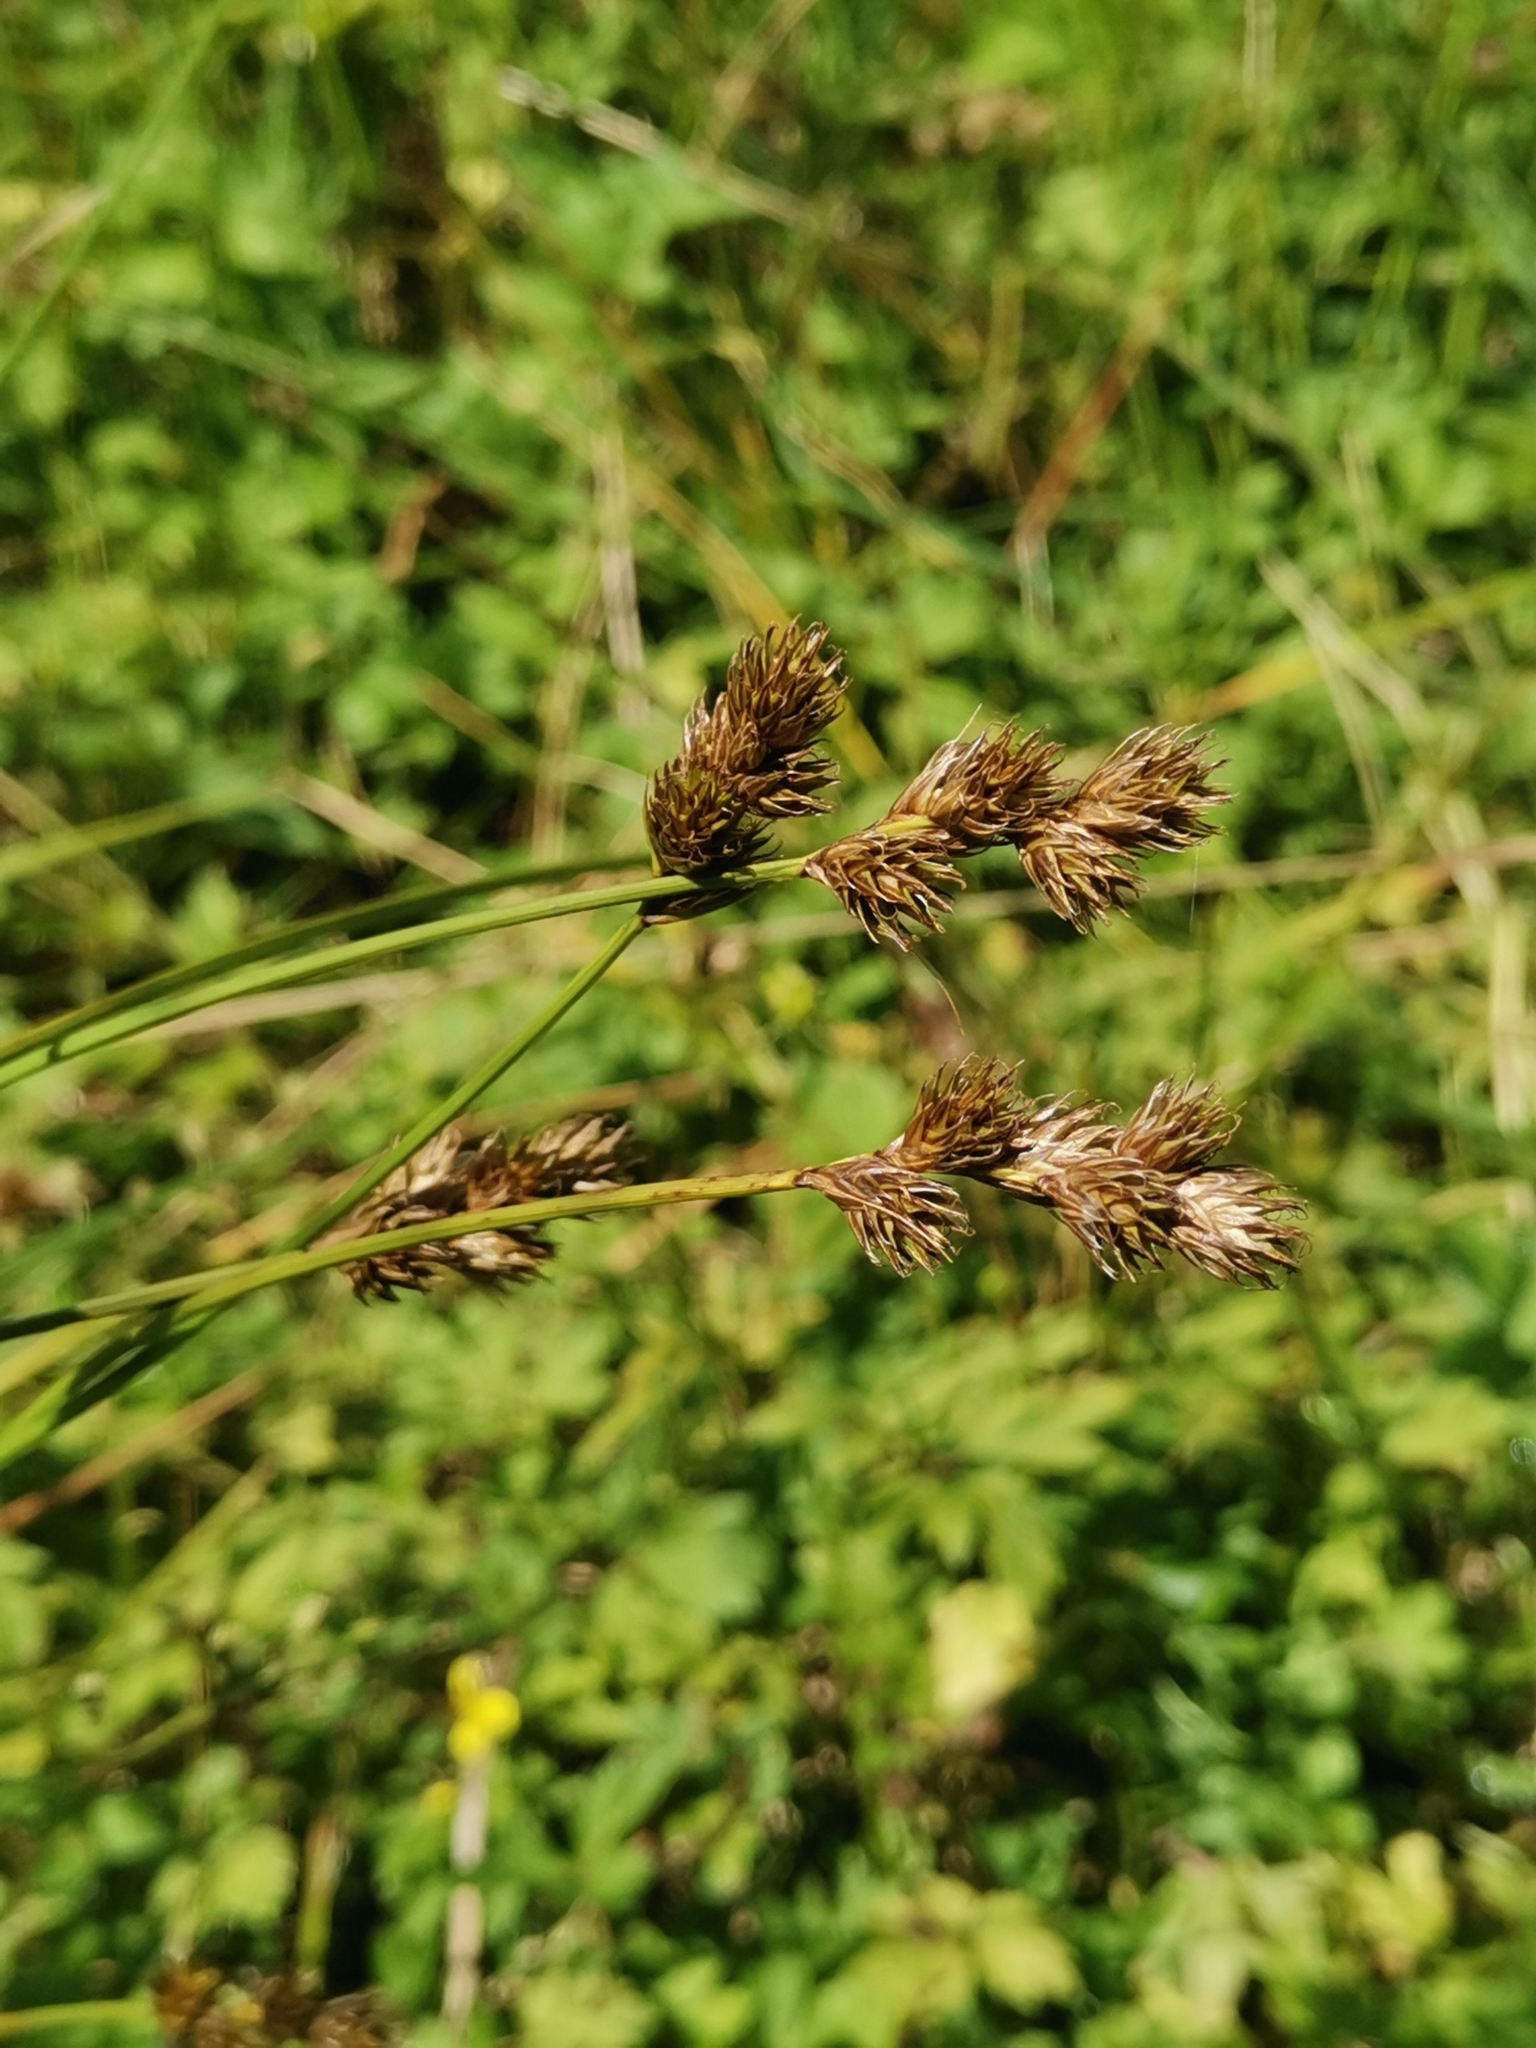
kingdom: Plantae
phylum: Tracheophyta
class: Liliopsida
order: Poales
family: Cyperaceae
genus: Carex
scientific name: Carex leporina
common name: Oval sedge
